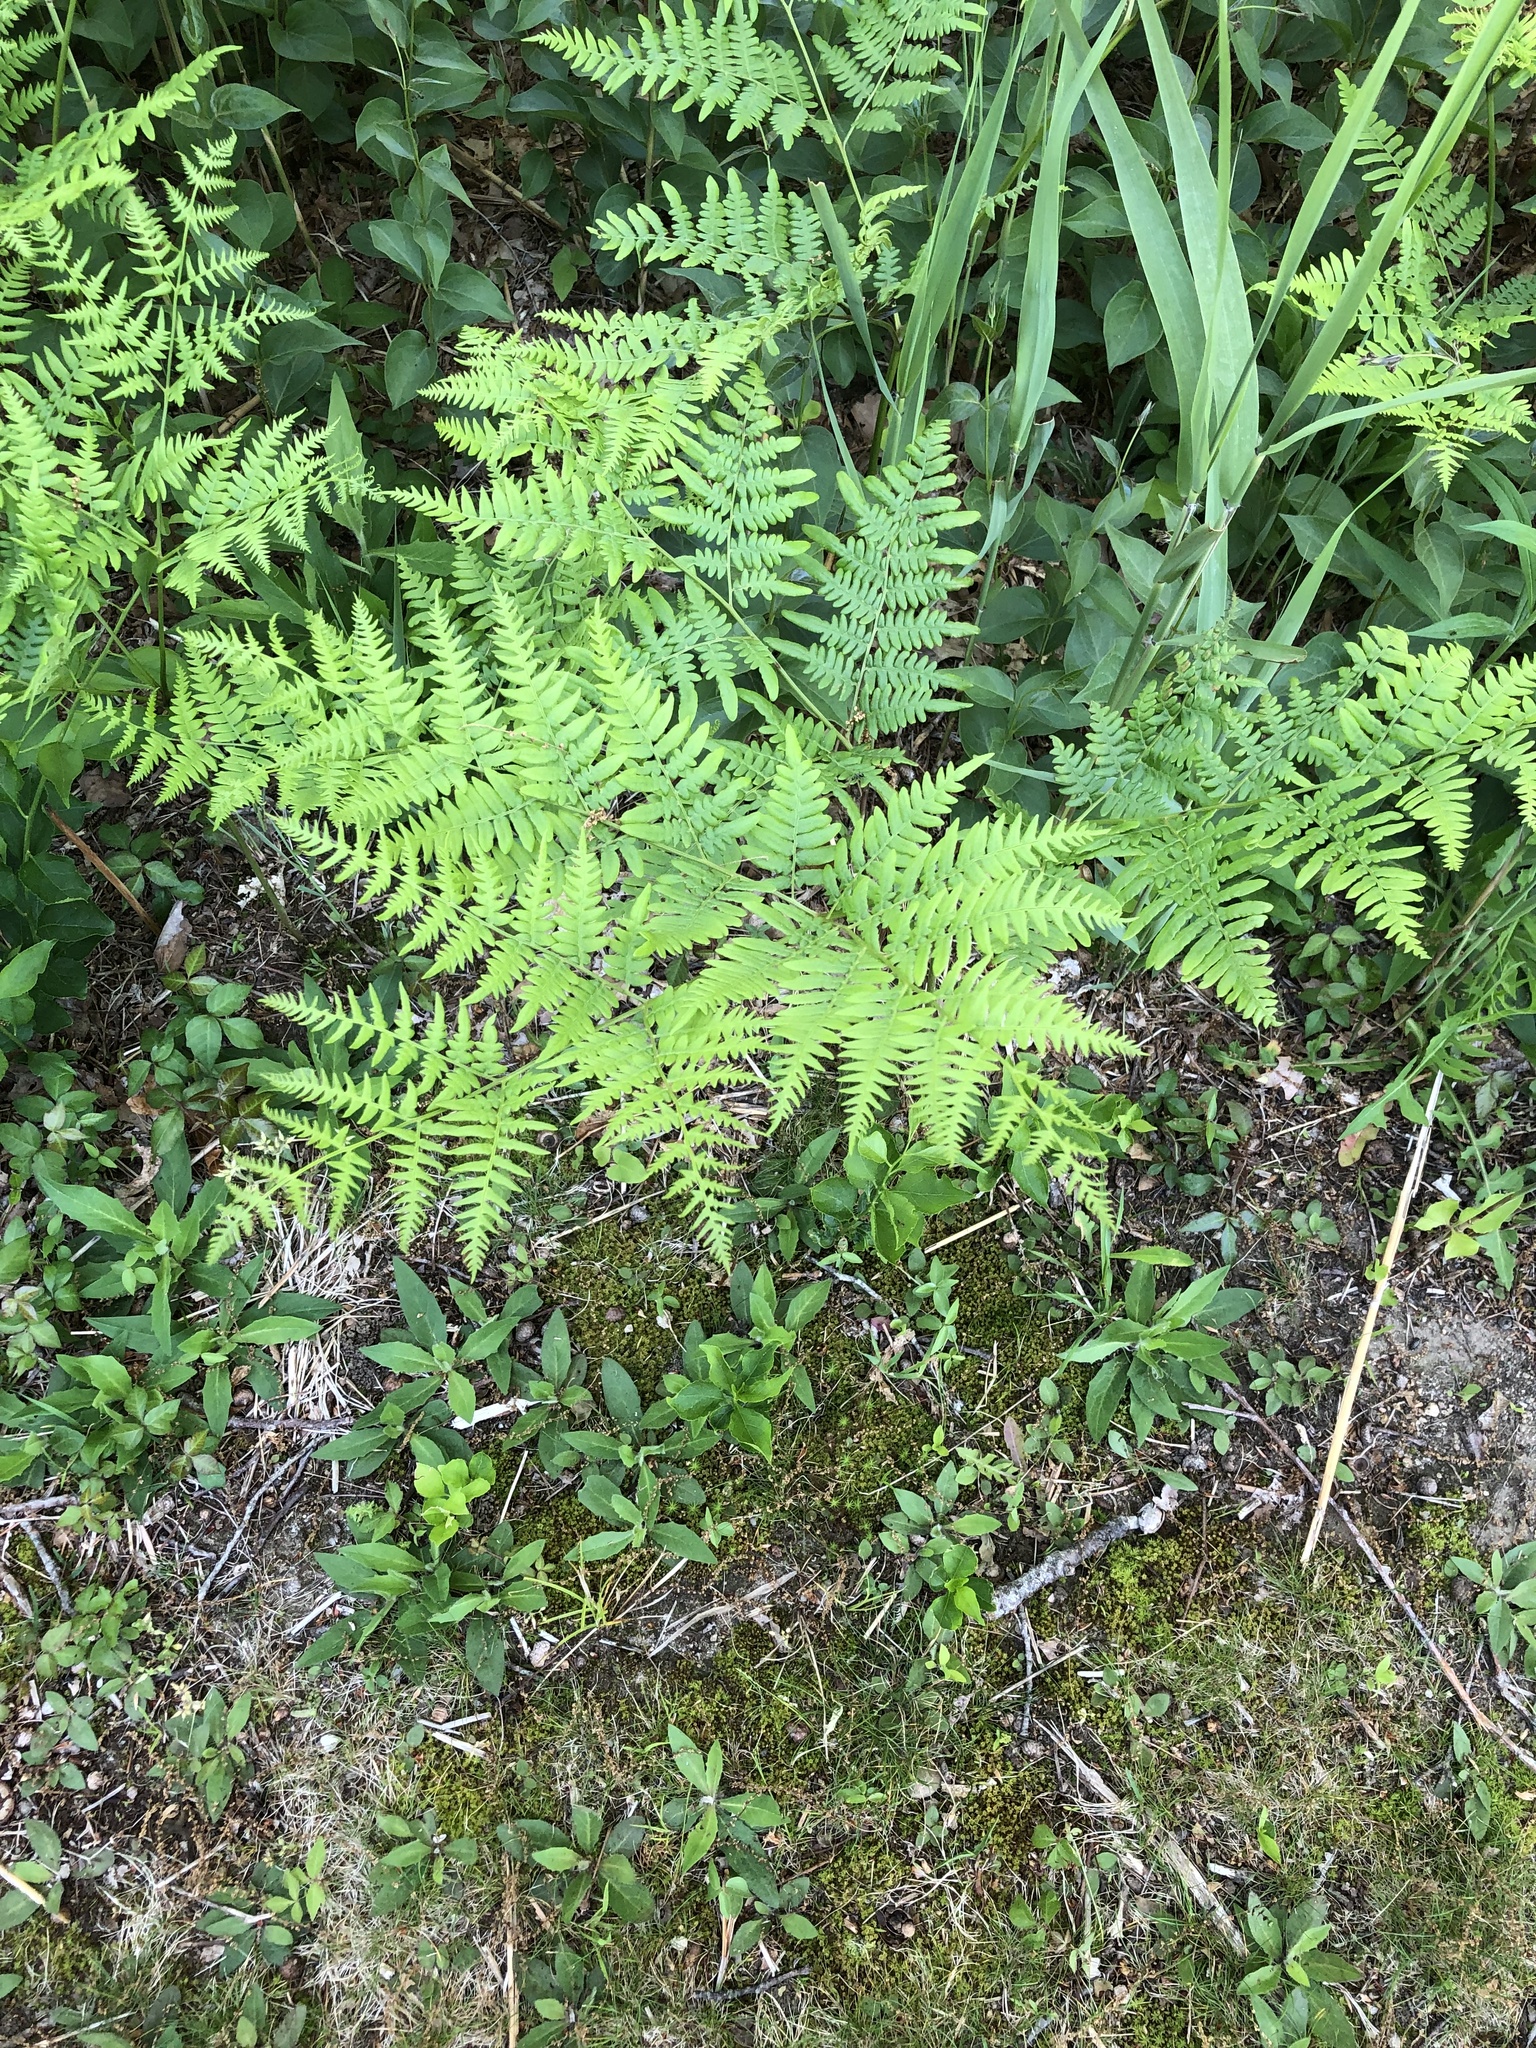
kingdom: Plantae
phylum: Tracheophyta
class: Polypodiopsida
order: Polypodiales
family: Dennstaedtiaceae
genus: Pteridium
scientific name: Pteridium aquilinum
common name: Bracken
